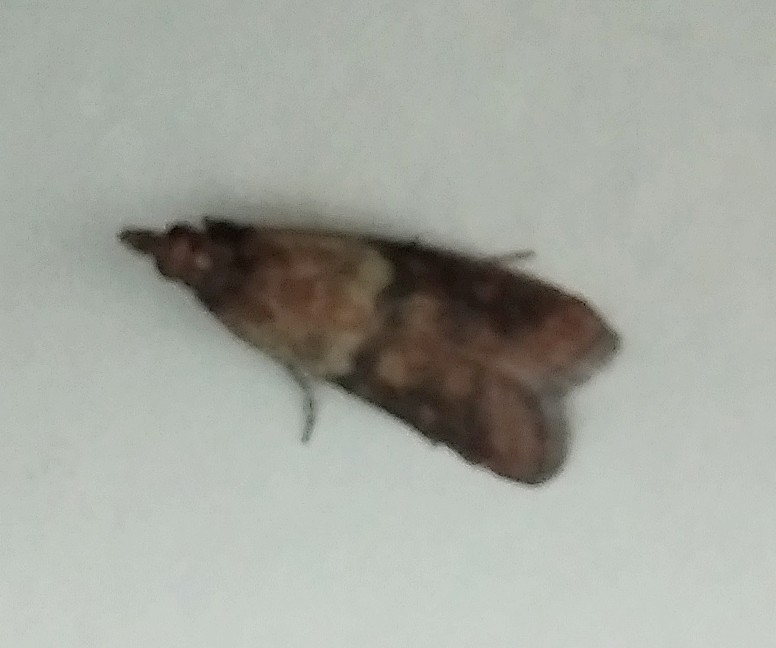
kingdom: Animalia
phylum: Arthropoda
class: Insecta
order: Lepidoptera
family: Pyralidae
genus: Plodia
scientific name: Plodia interpunctella
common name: Indian meal moth
